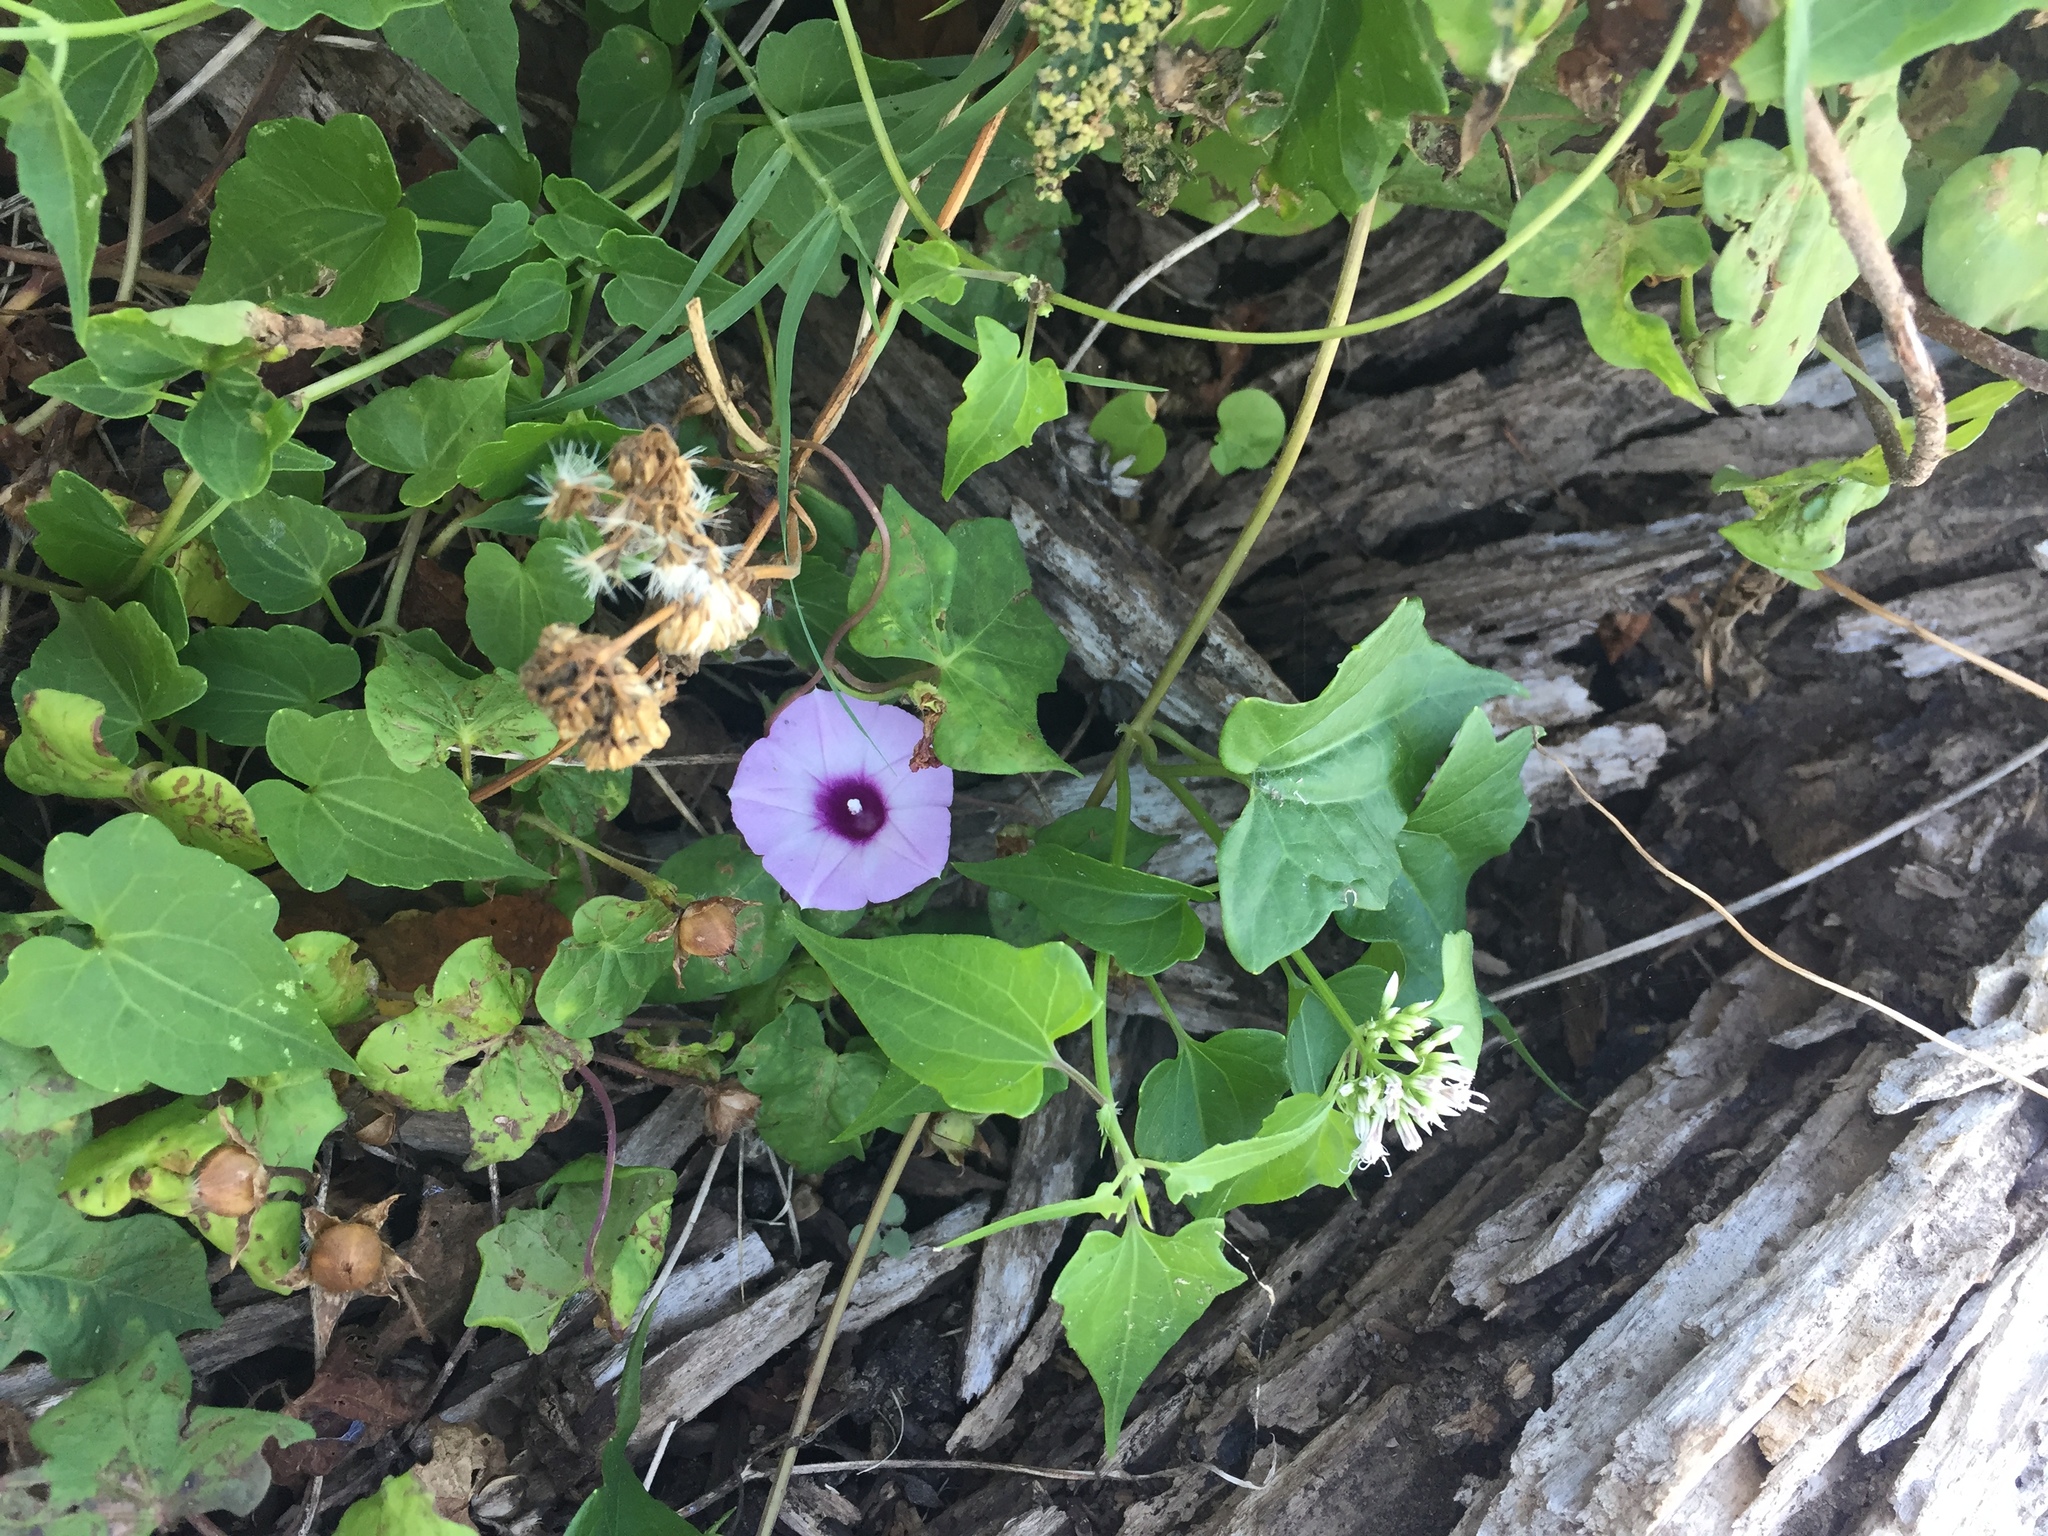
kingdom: Plantae
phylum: Tracheophyta
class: Magnoliopsida
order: Solanales
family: Convolvulaceae
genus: Ipomoea
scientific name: Ipomoea cordatotriloba
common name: Cotton morning glory
